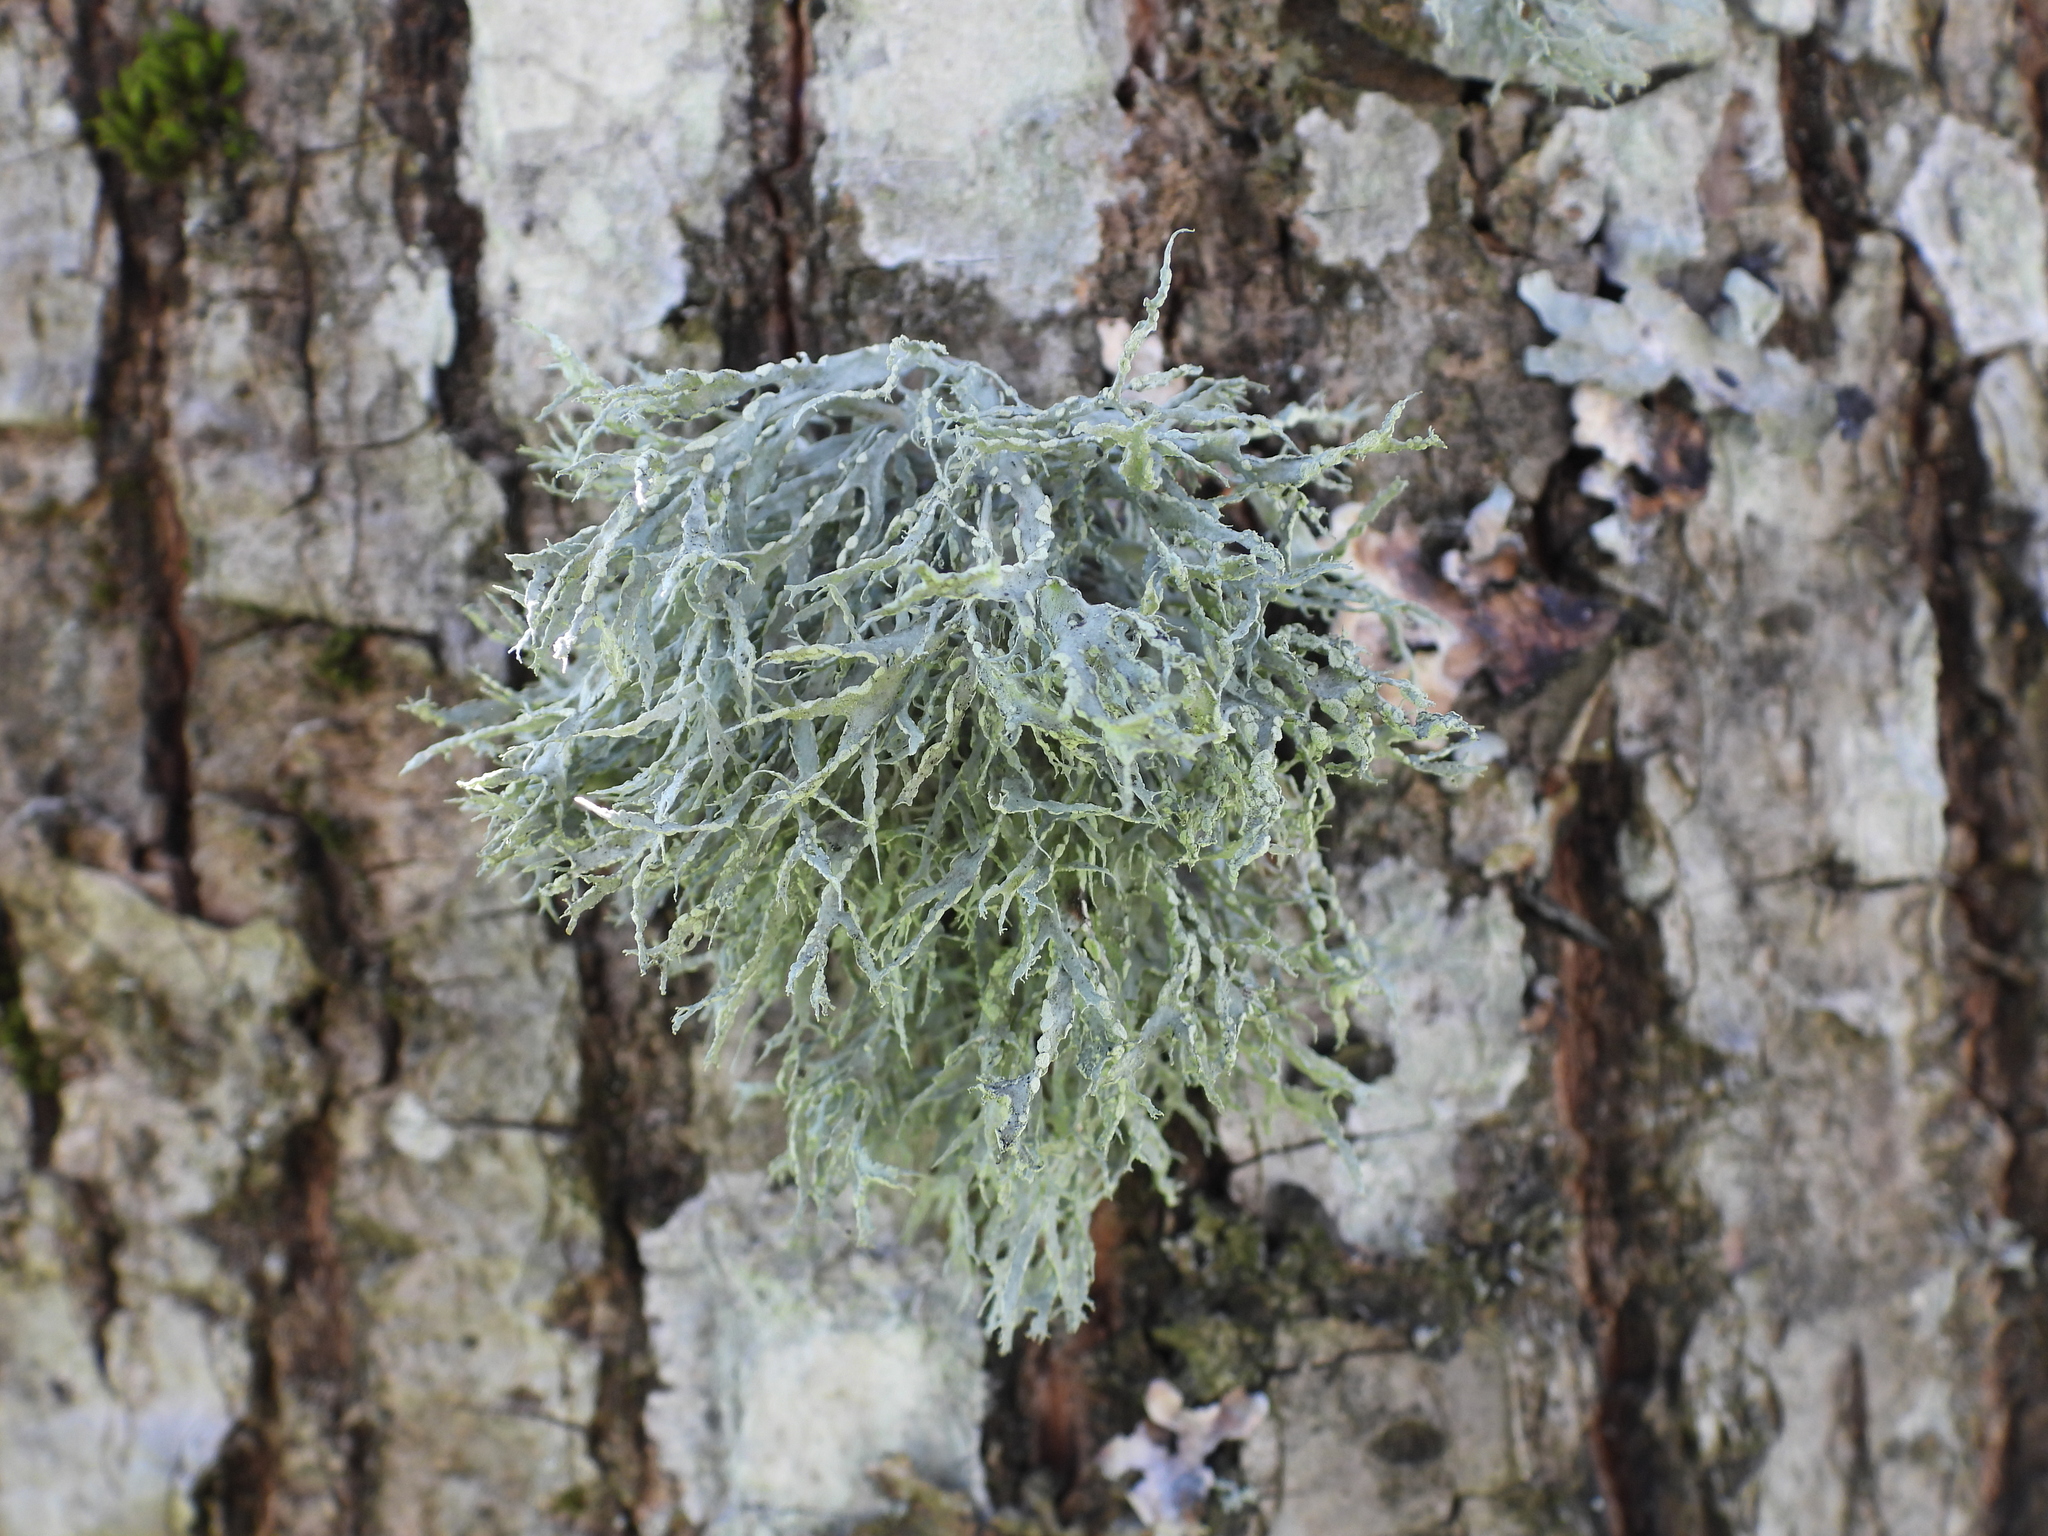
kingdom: Fungi
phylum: Ascomycota
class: Lecanoromycetes
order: Lecanorales
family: Ramalinaceae
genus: Ramalina
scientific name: Ramalina farinacea
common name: Farinose cartilage lichen
